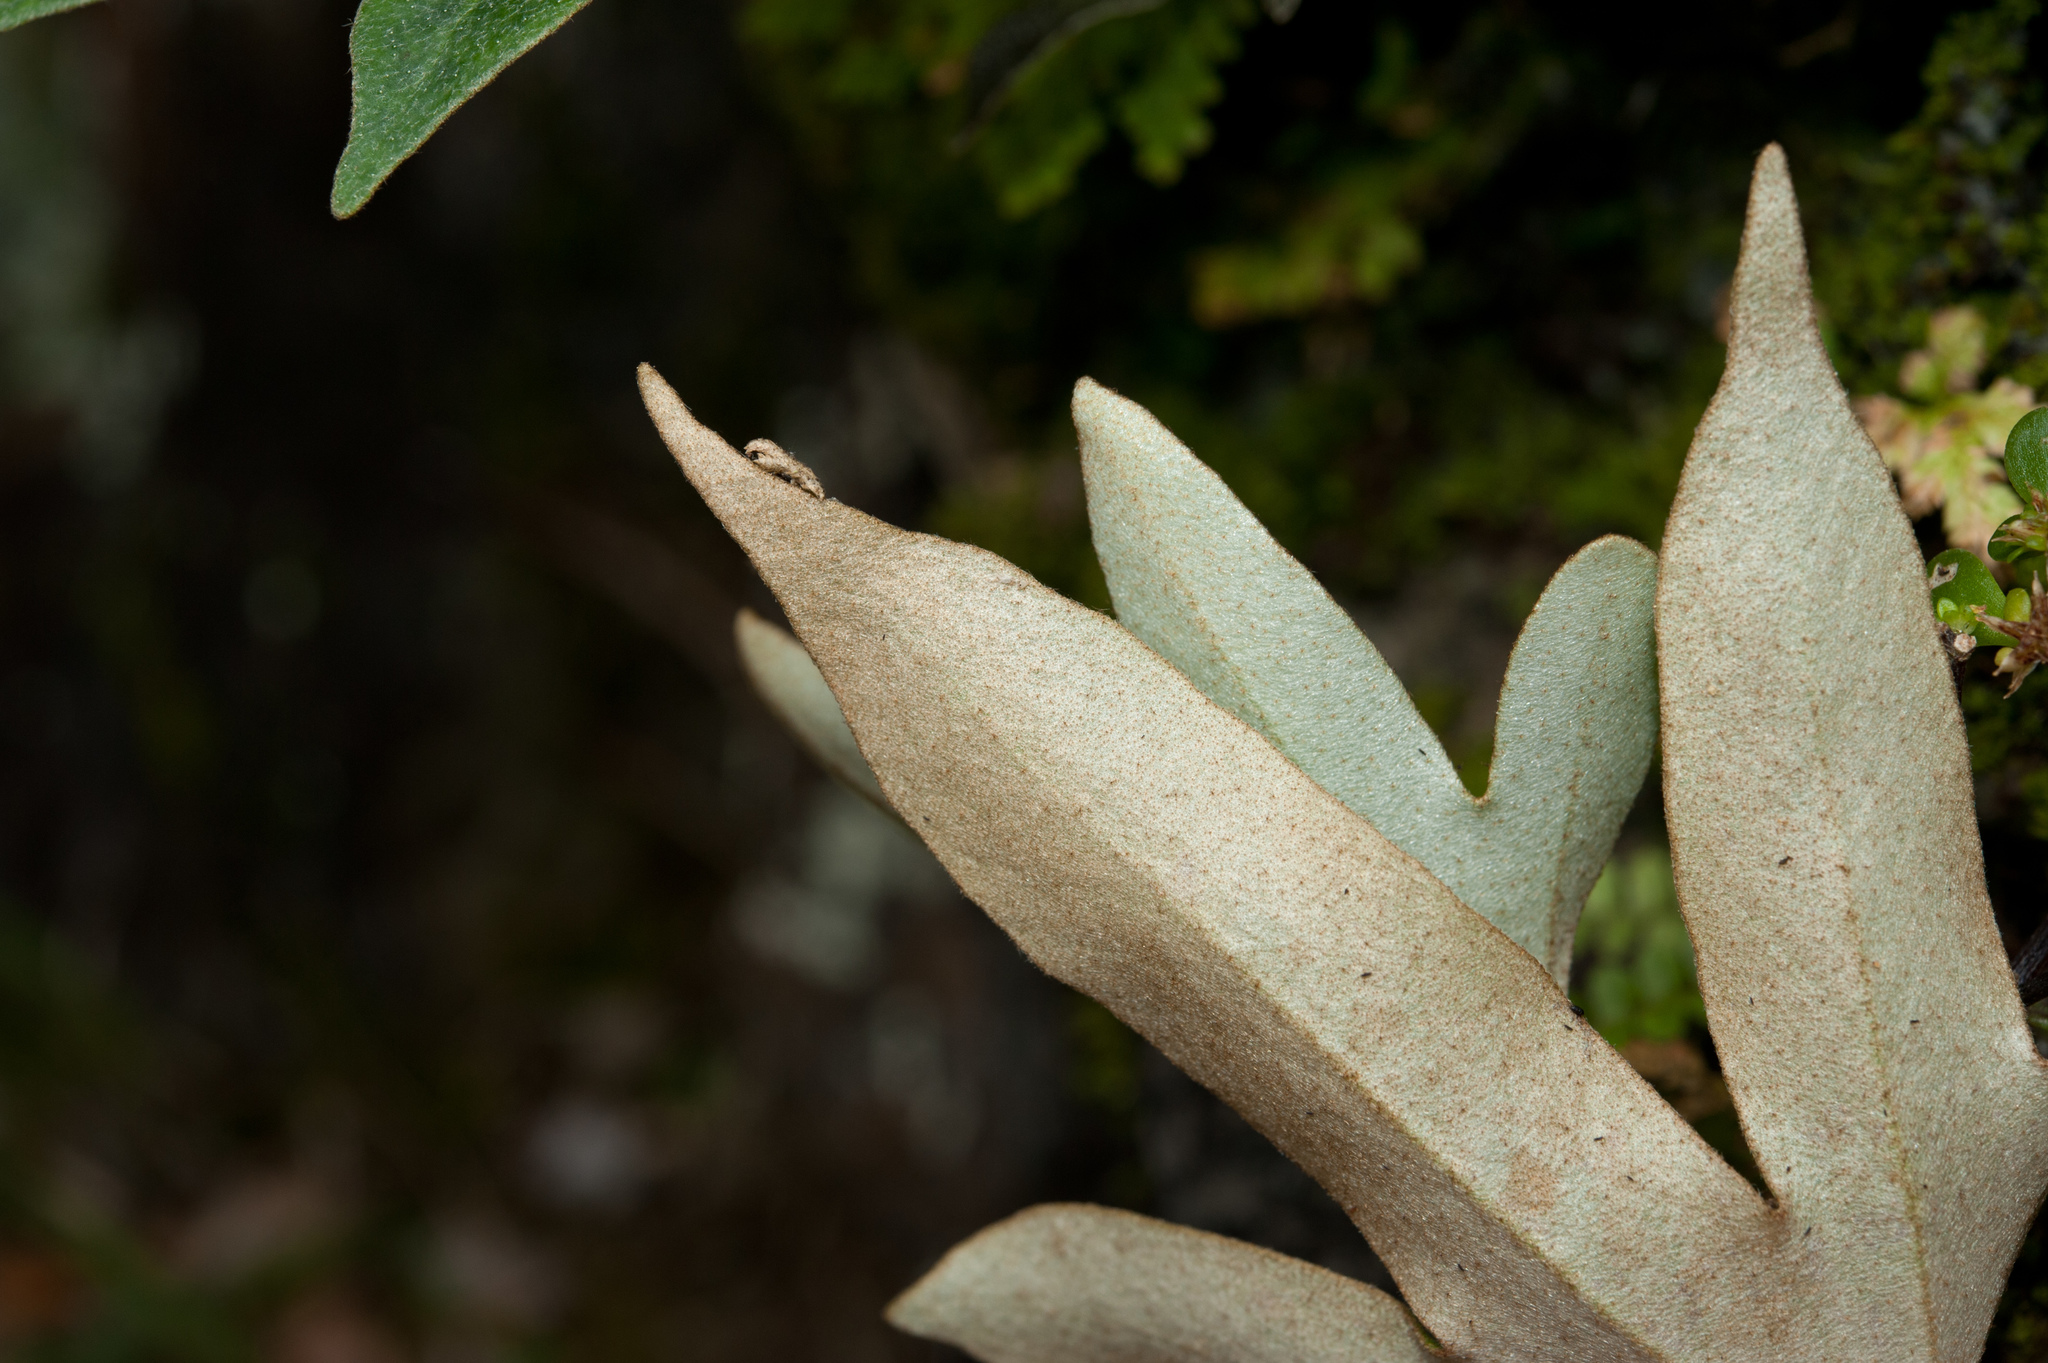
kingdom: Plantae
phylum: Tracheophyta
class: Polypodiopsida
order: Polypodiales
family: Polypodiaceae
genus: Pyrrosia
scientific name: Pyrrosia polydactyla
